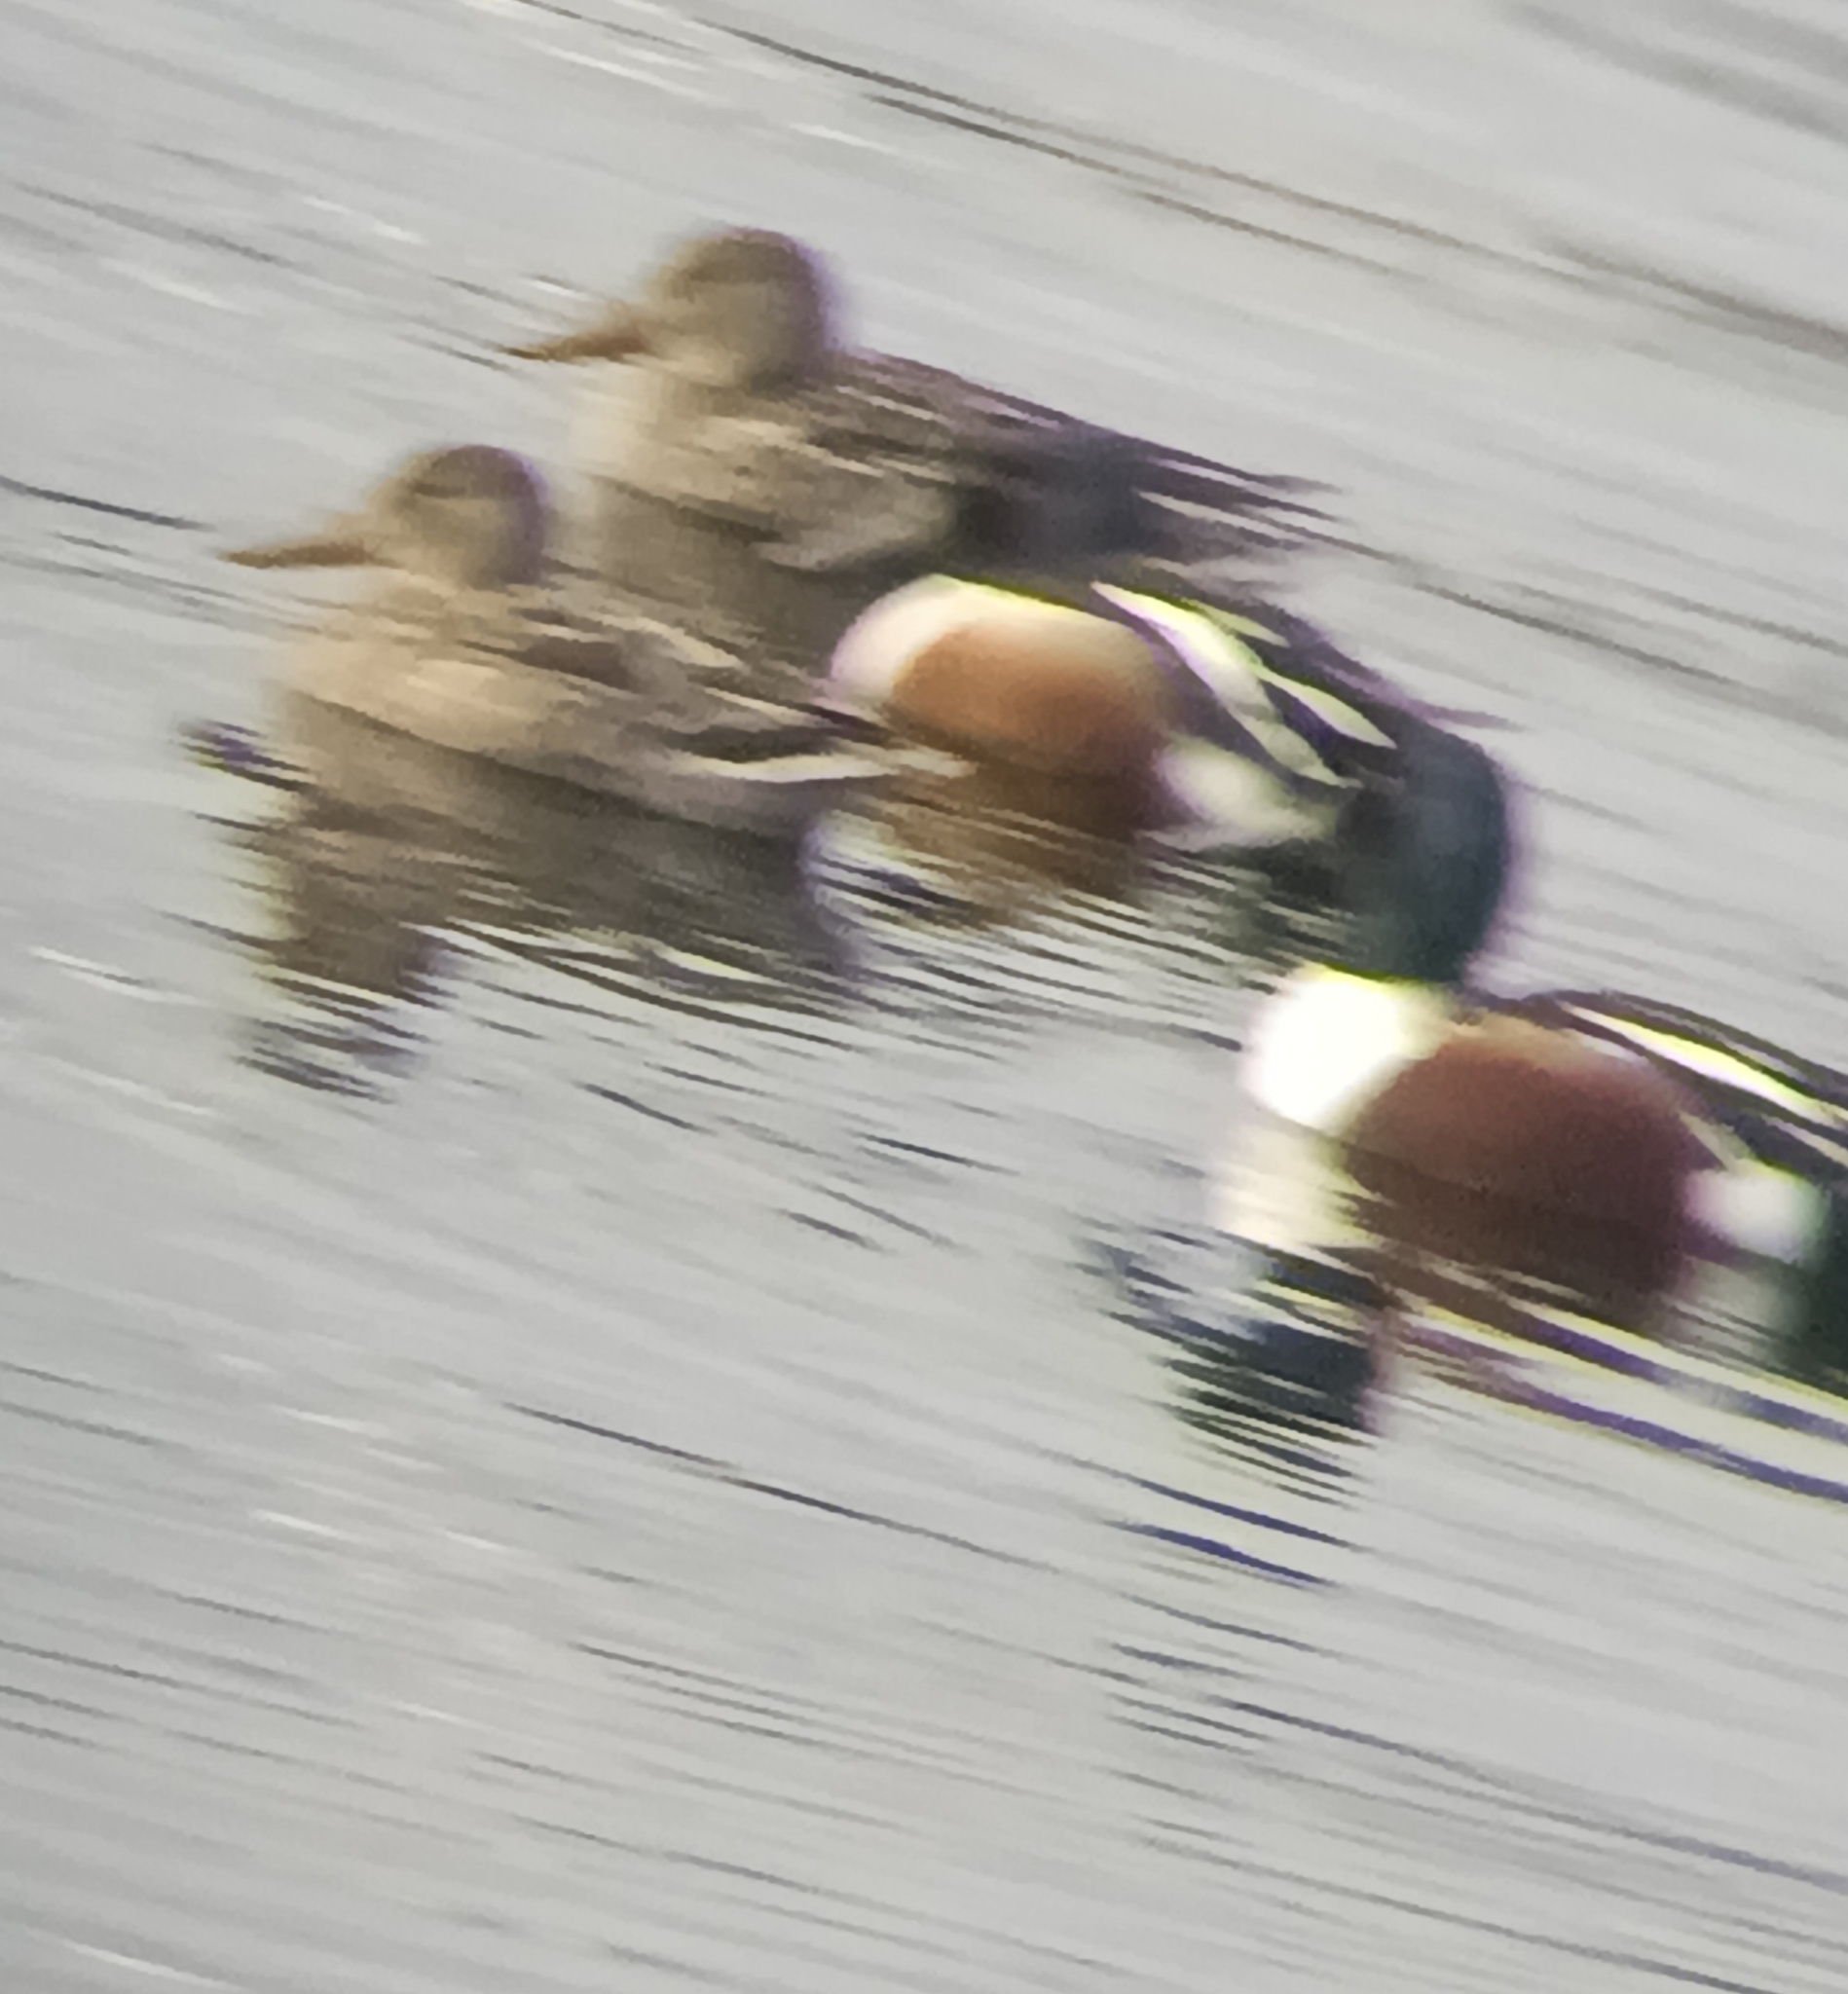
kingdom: Animalia
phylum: Chordata
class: Aves
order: Anseriformes
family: Anatidae
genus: Spatula
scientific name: Spatula clypeata
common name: Northern shoveler
